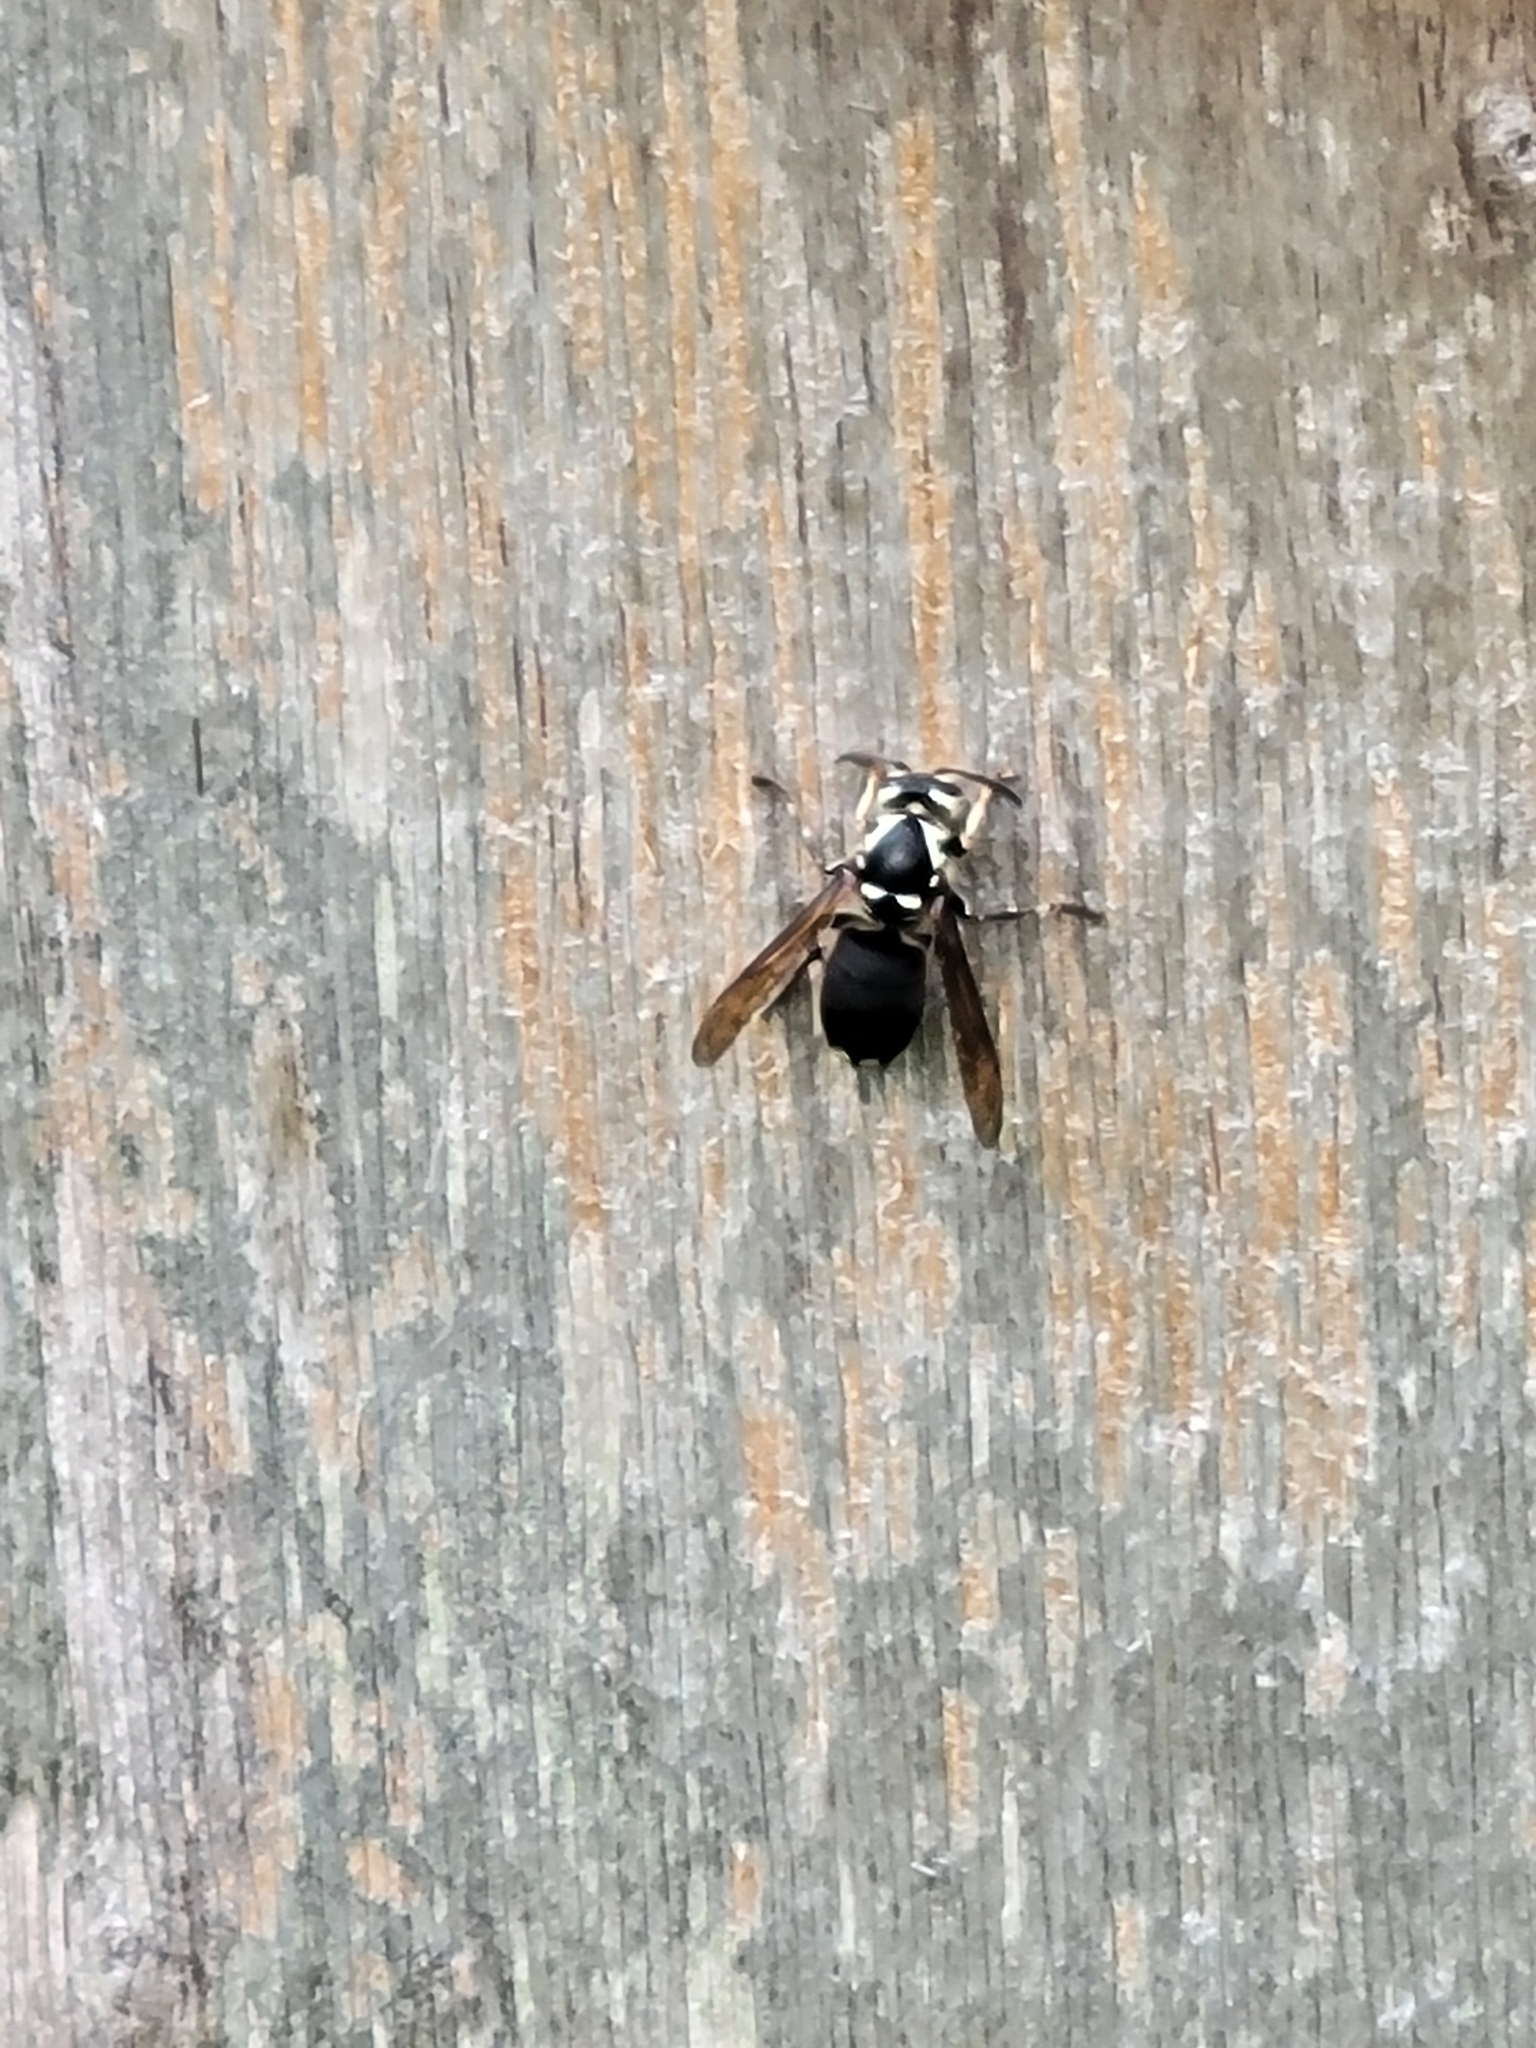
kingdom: Animalia
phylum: Arthropoda
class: Insecta
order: Hymenoptera
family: Vespidae
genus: Dolichovespula
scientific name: Dolichovespula maculata
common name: Bald-faced hornet
